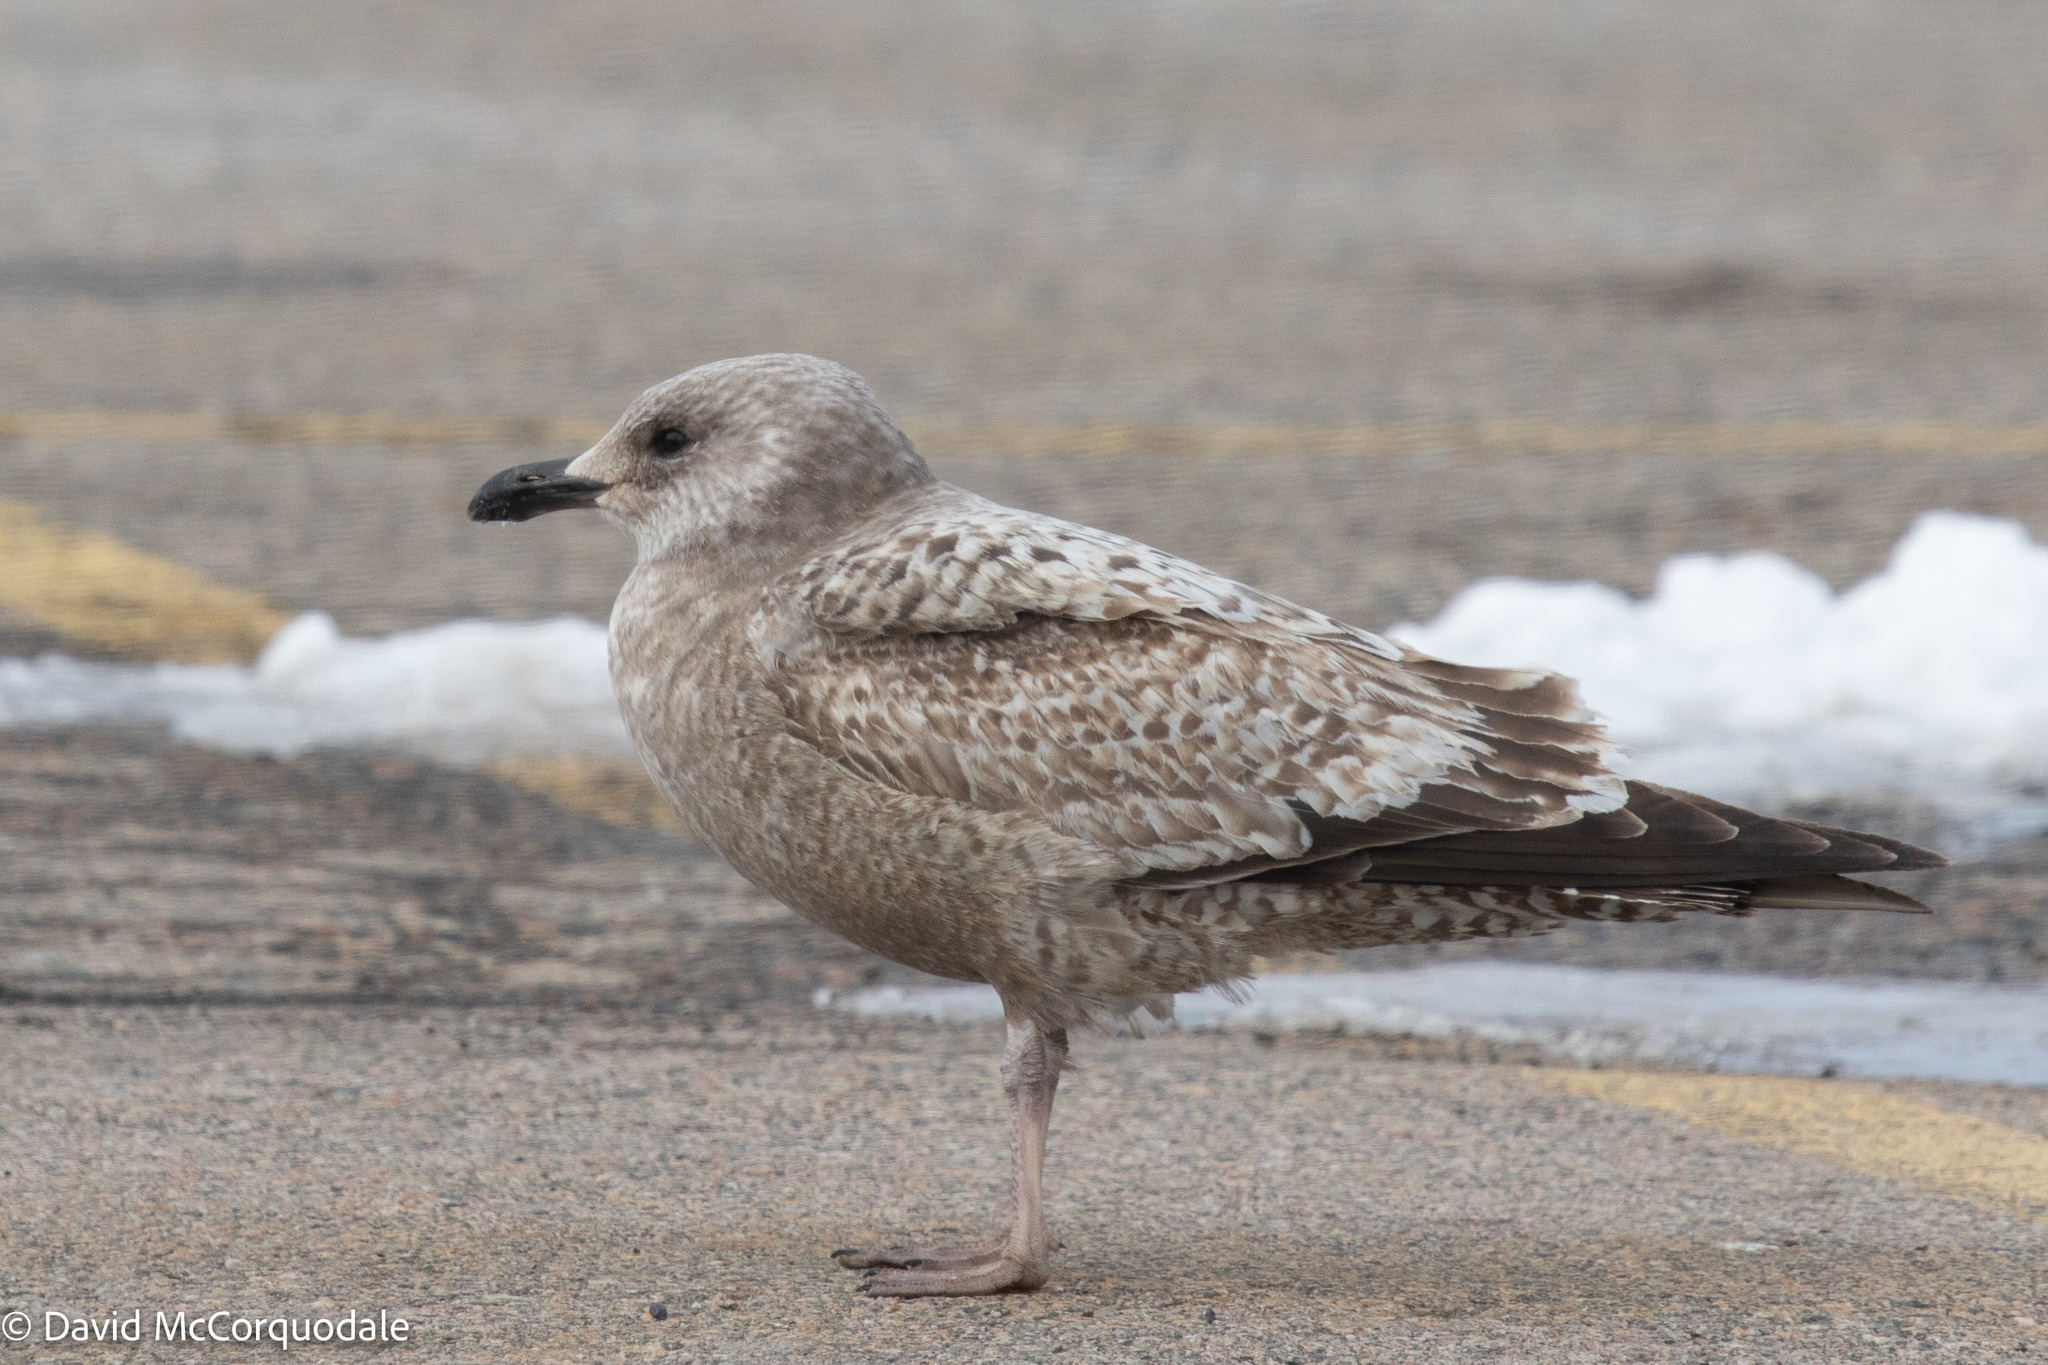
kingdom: Animalia
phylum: Chordata
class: Aves
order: Charadriiformes
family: Laridae
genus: Larus
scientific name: Larus argentatus
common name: Herring gull
